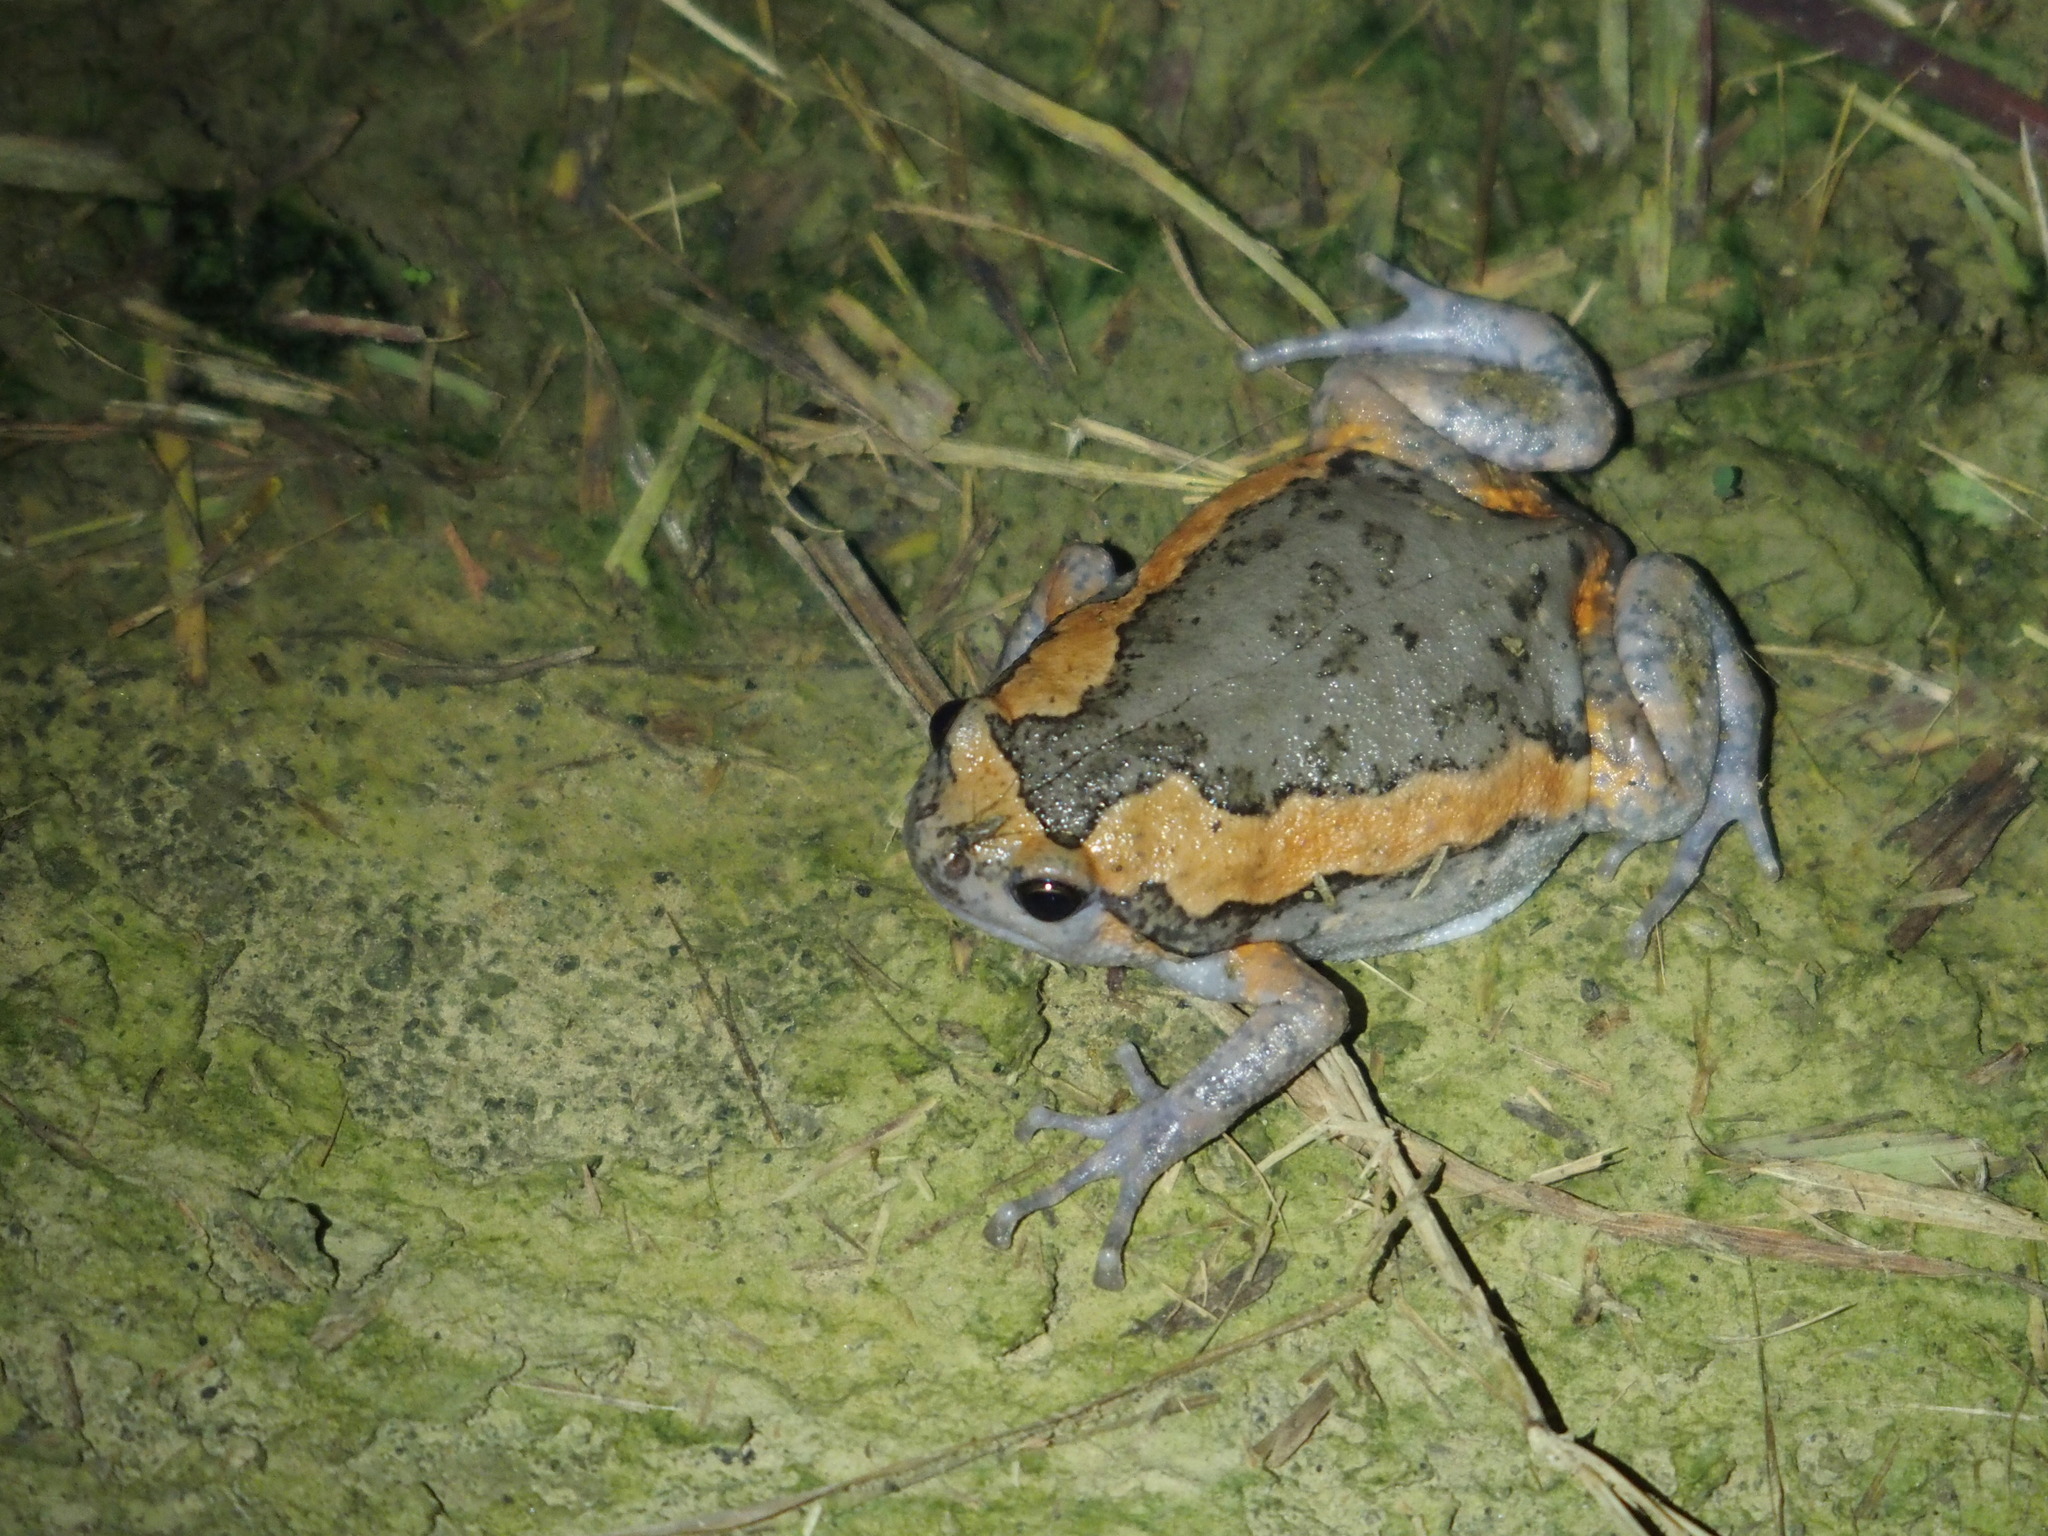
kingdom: Animalia
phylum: Chordata
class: Amphibia
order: Anura
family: Microhylidae
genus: Kaloula
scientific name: Kaloula pulchra
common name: Common,banded bullfrog
